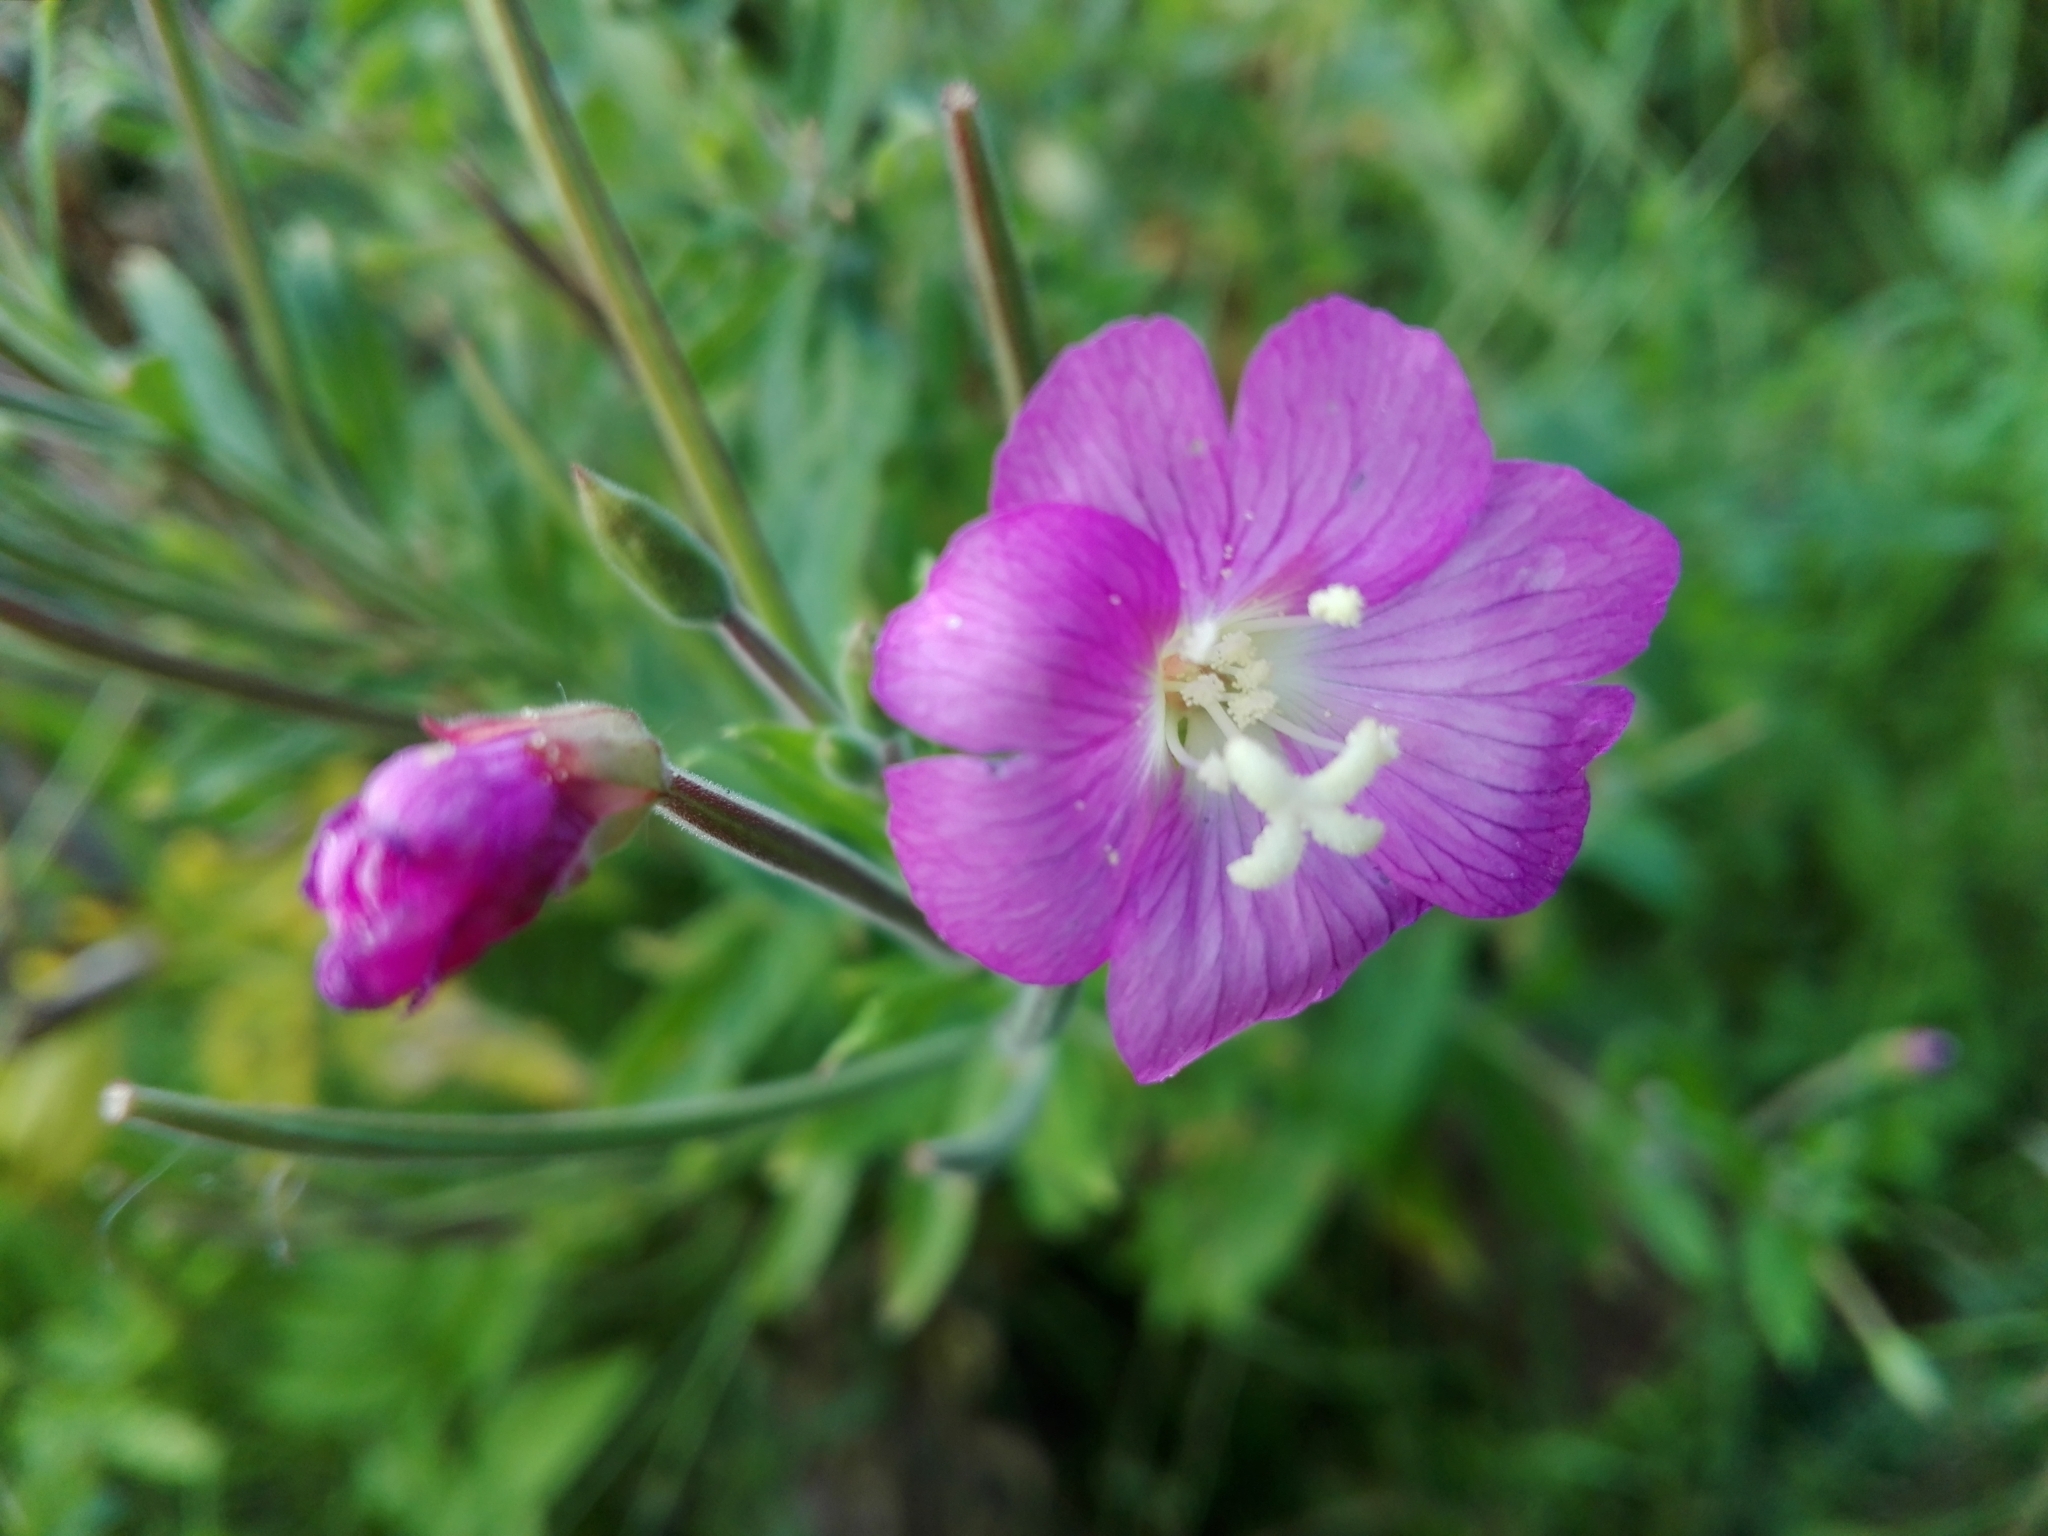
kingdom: Plantae
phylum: Tracheophyta
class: Magnoliopsida
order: Myrtales
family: Onagraceae
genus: Epilobium
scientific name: Epilobium hirsutum
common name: Great willowherb
